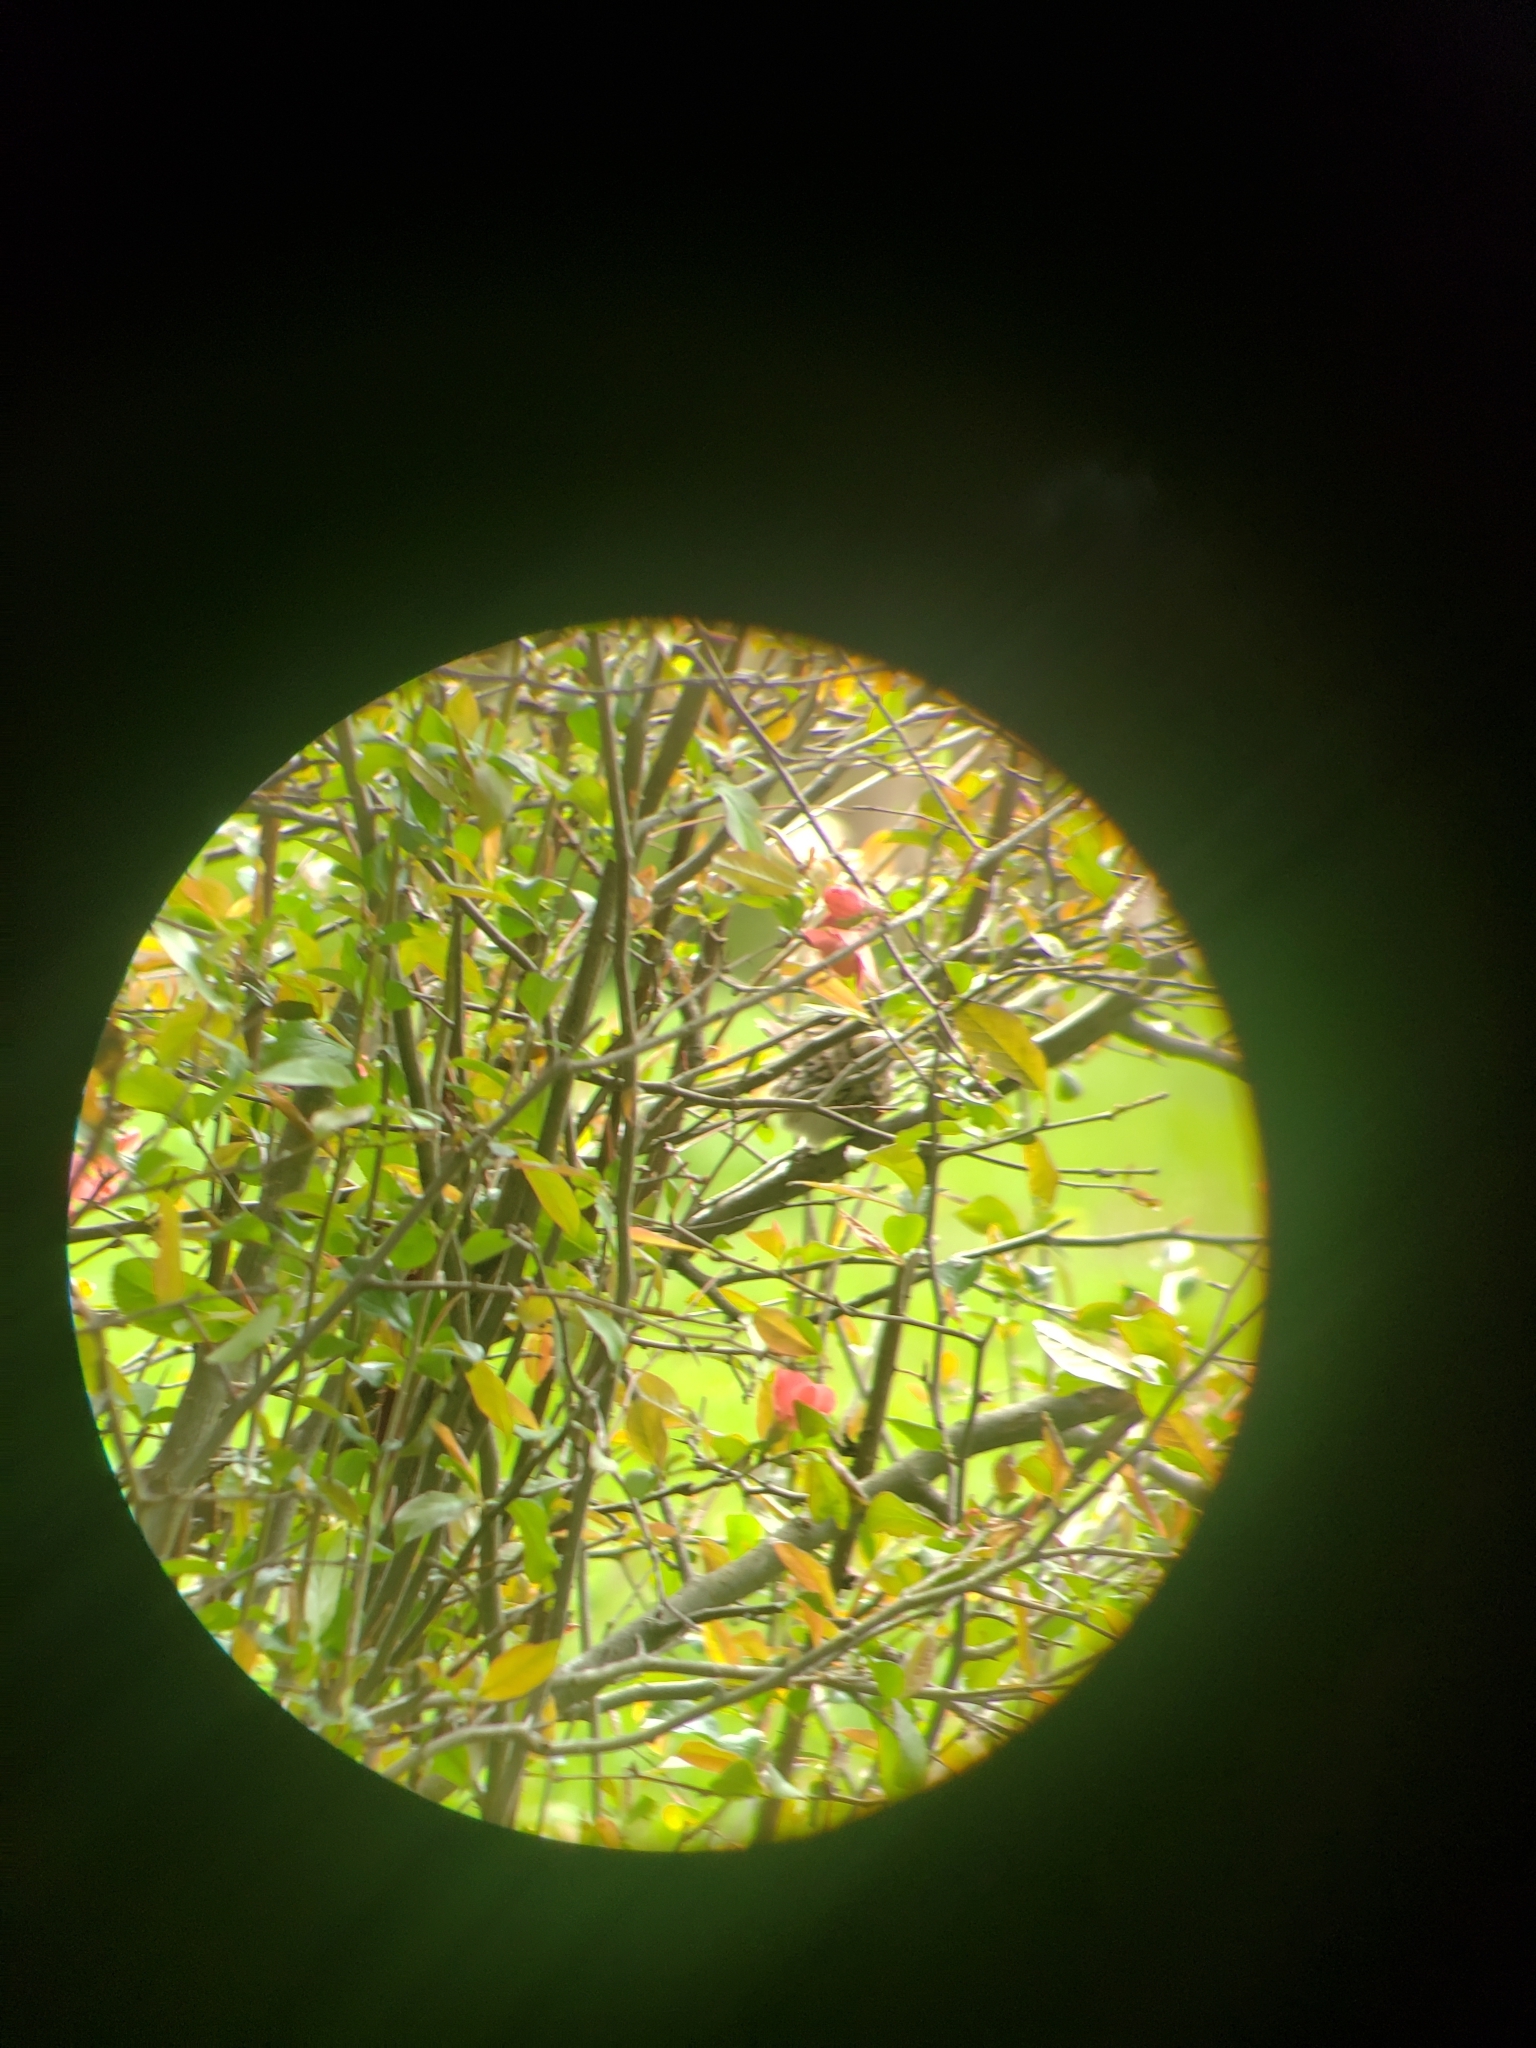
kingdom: Animalia
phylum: Chordata
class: Aves
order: Passeriformes
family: Passerellidae
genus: Melospiza
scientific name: Melospiza melodia
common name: Song sparrow
